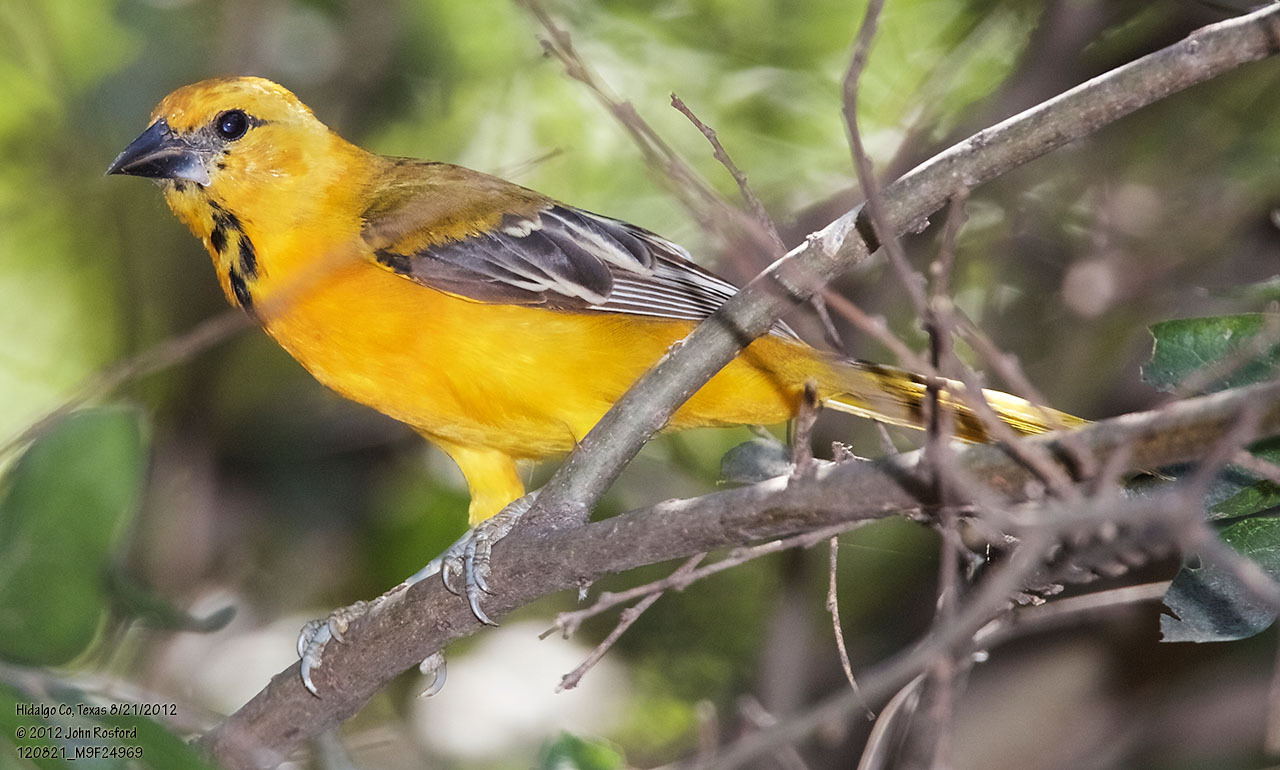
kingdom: Animalia
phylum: Chordata
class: Aves
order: Passeriformes
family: Icteridae
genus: Icterus
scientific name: Icterus gularis
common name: Altamira oriole
